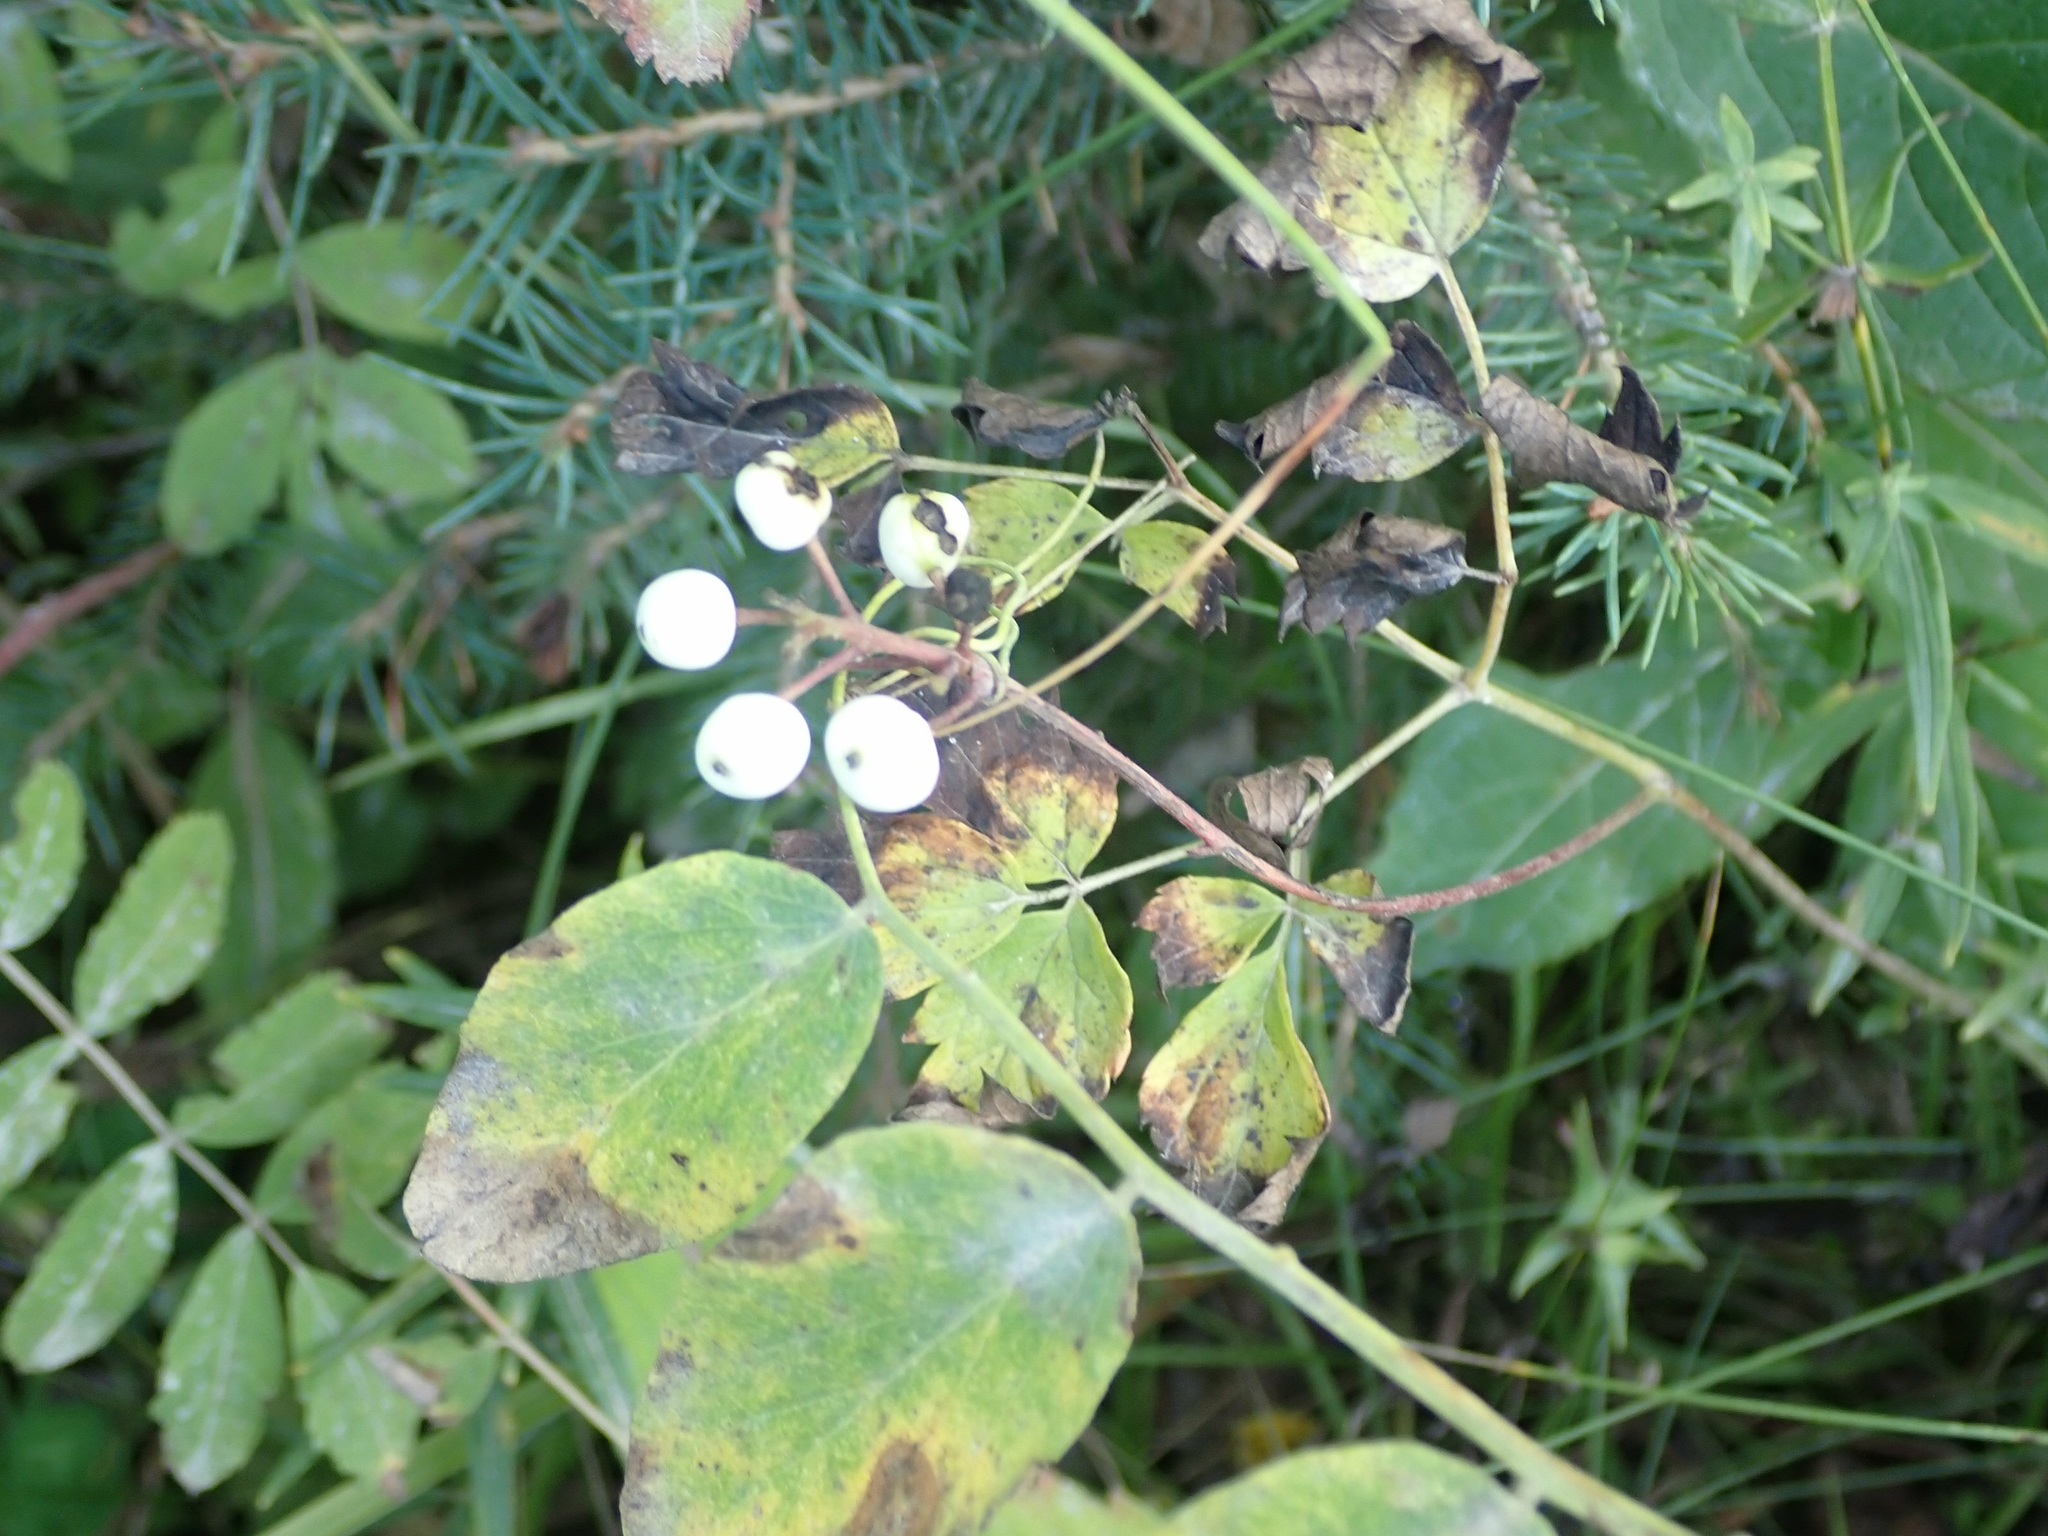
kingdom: Plantae
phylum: Tracheophyta
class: Magnoliopsida
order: Ranunculales
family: Ranunculaceae
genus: Actaea
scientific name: Actaea rubra
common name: Red baneberry
